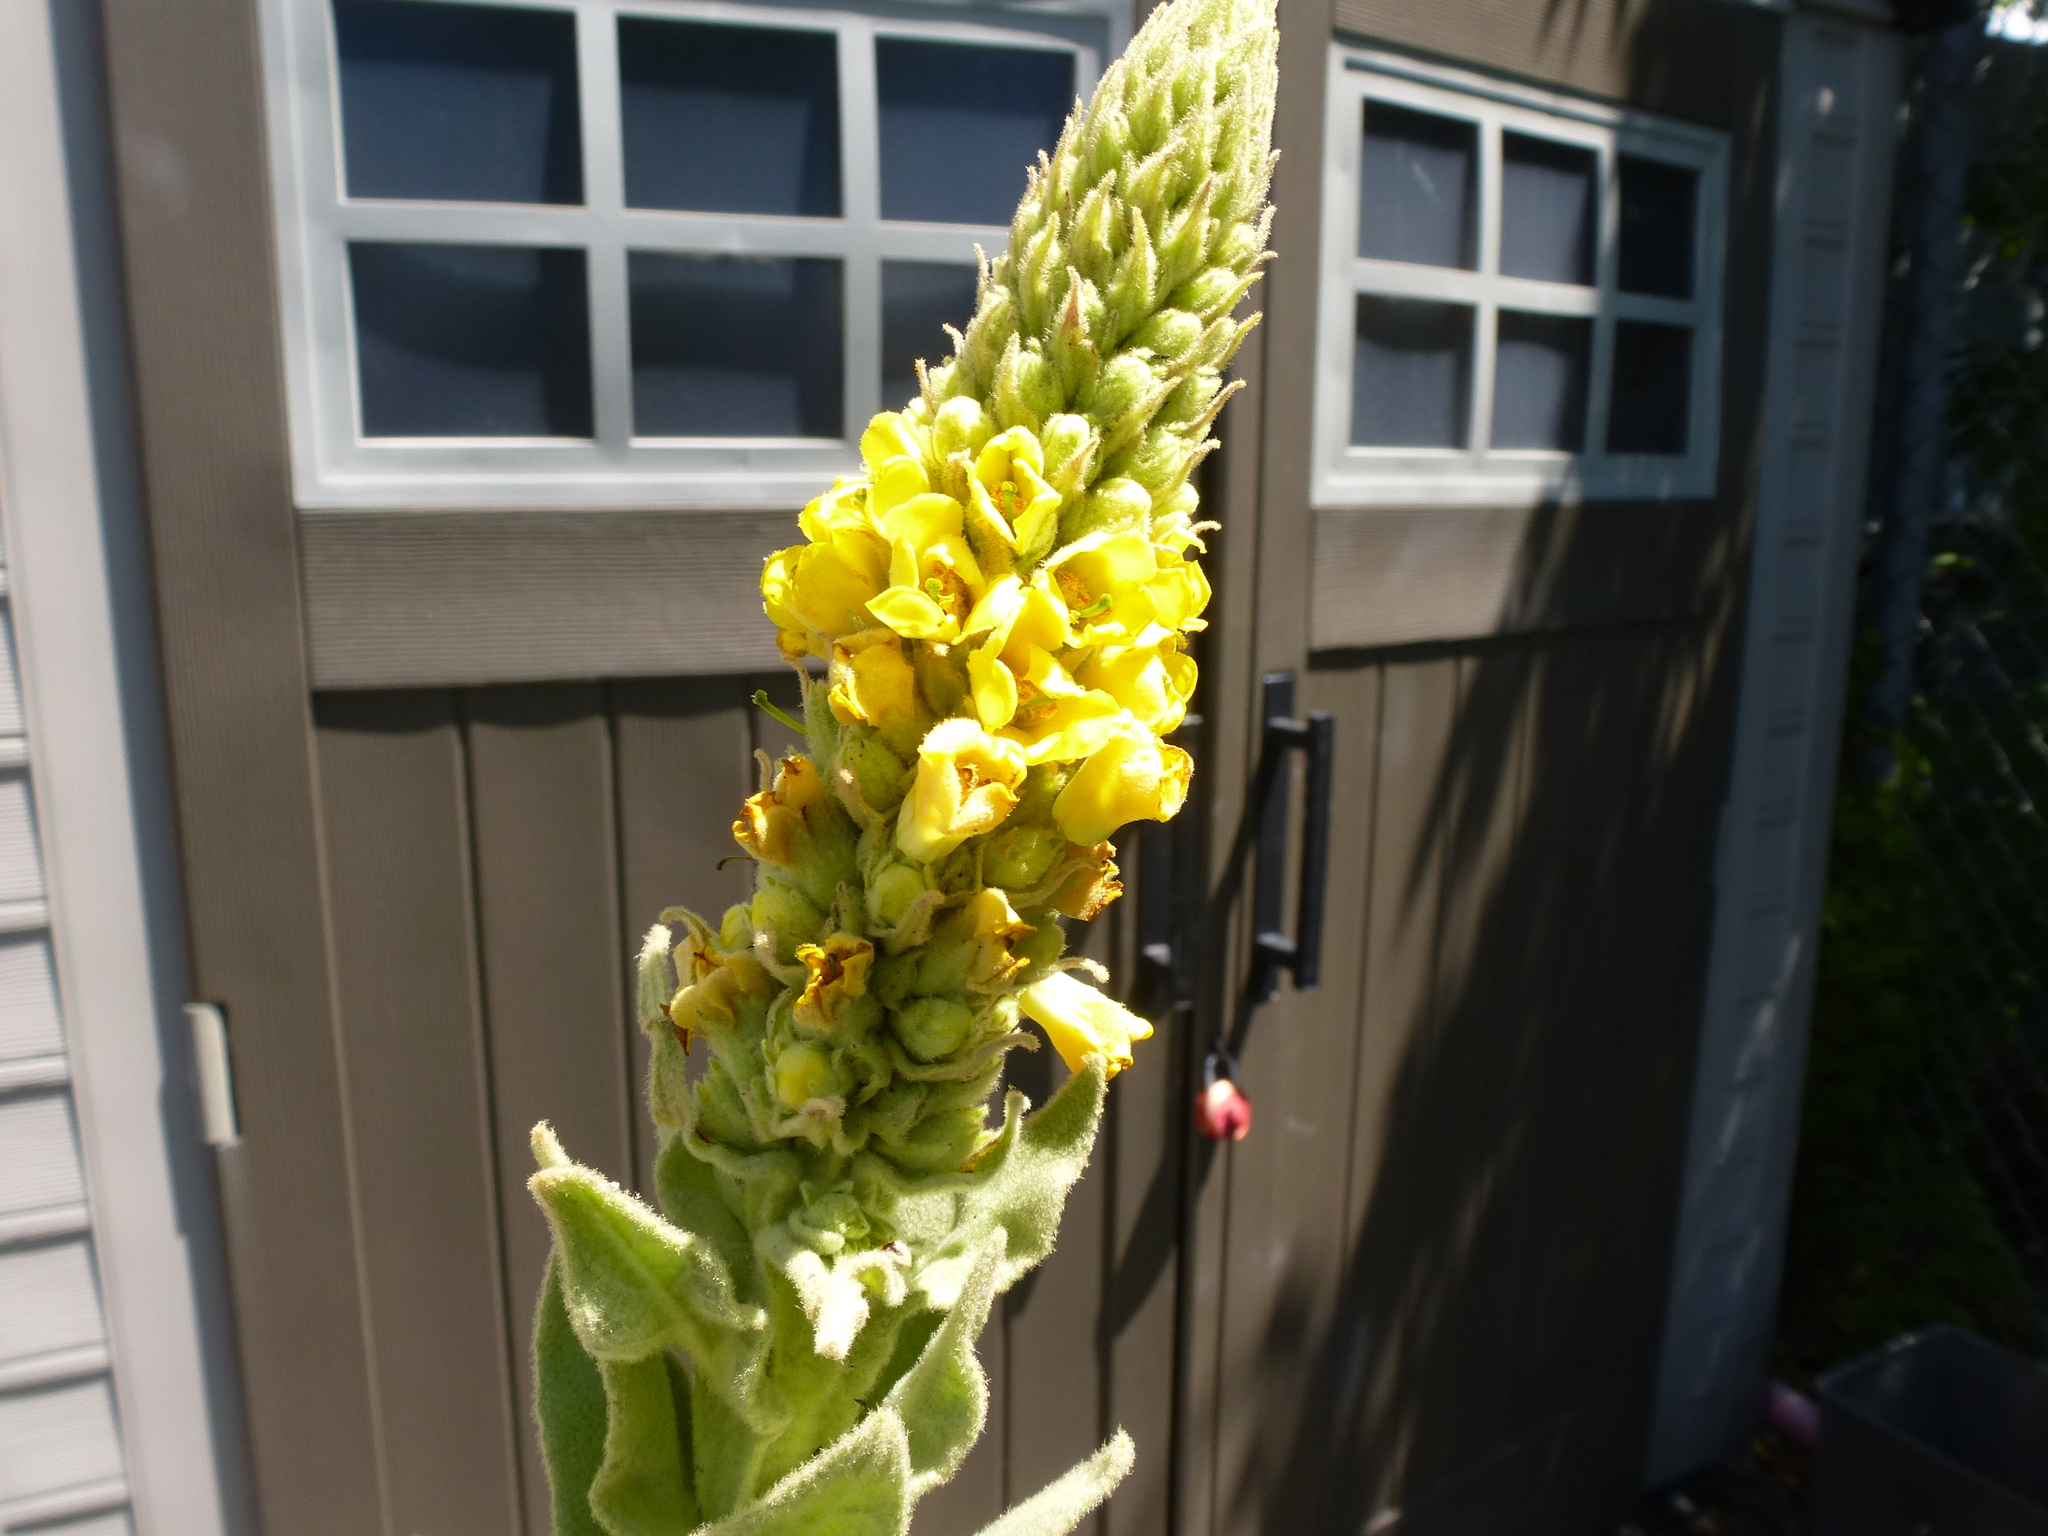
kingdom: Plantae
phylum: Tracheophyta
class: Magnoliopsida
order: Lamiales
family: Scrophulariaceae
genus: Verbascum
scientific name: Verbascum thapsus
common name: Common mullein
